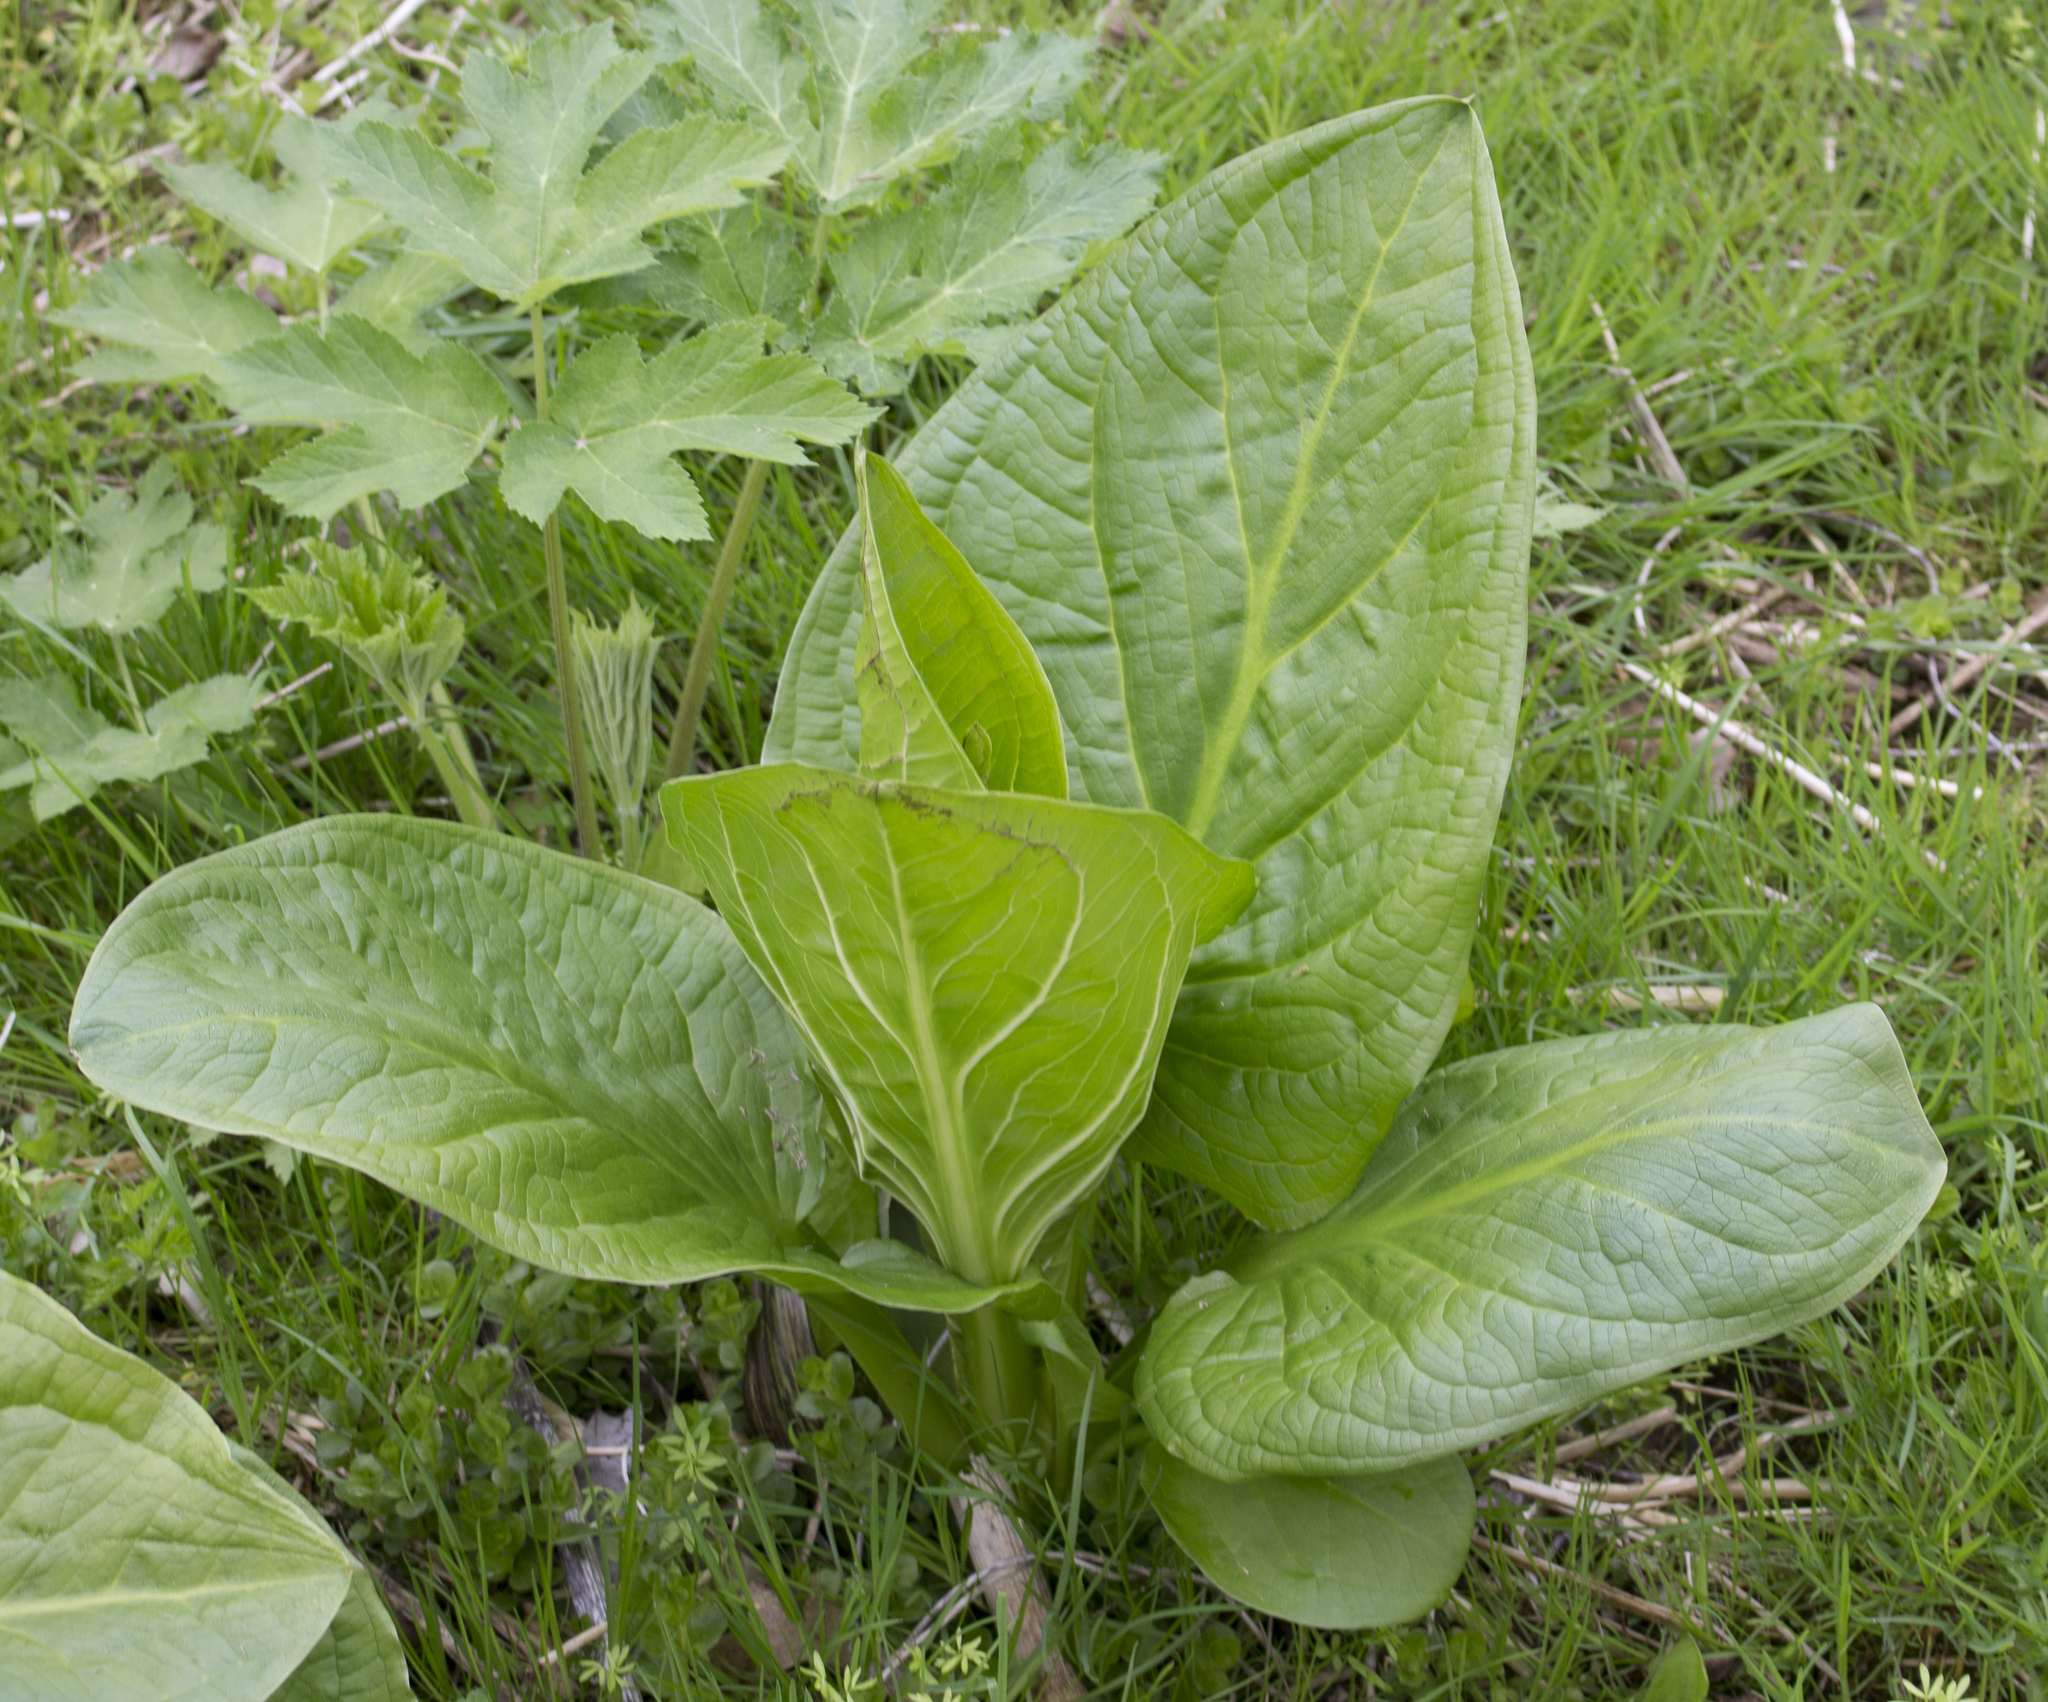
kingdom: Plantae
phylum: Tracheophyta
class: Liliopsida
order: Alismatales
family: Araceae
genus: Symplocarpus
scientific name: Symplocarpus foetidus
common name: Eastern skunk cabbage
